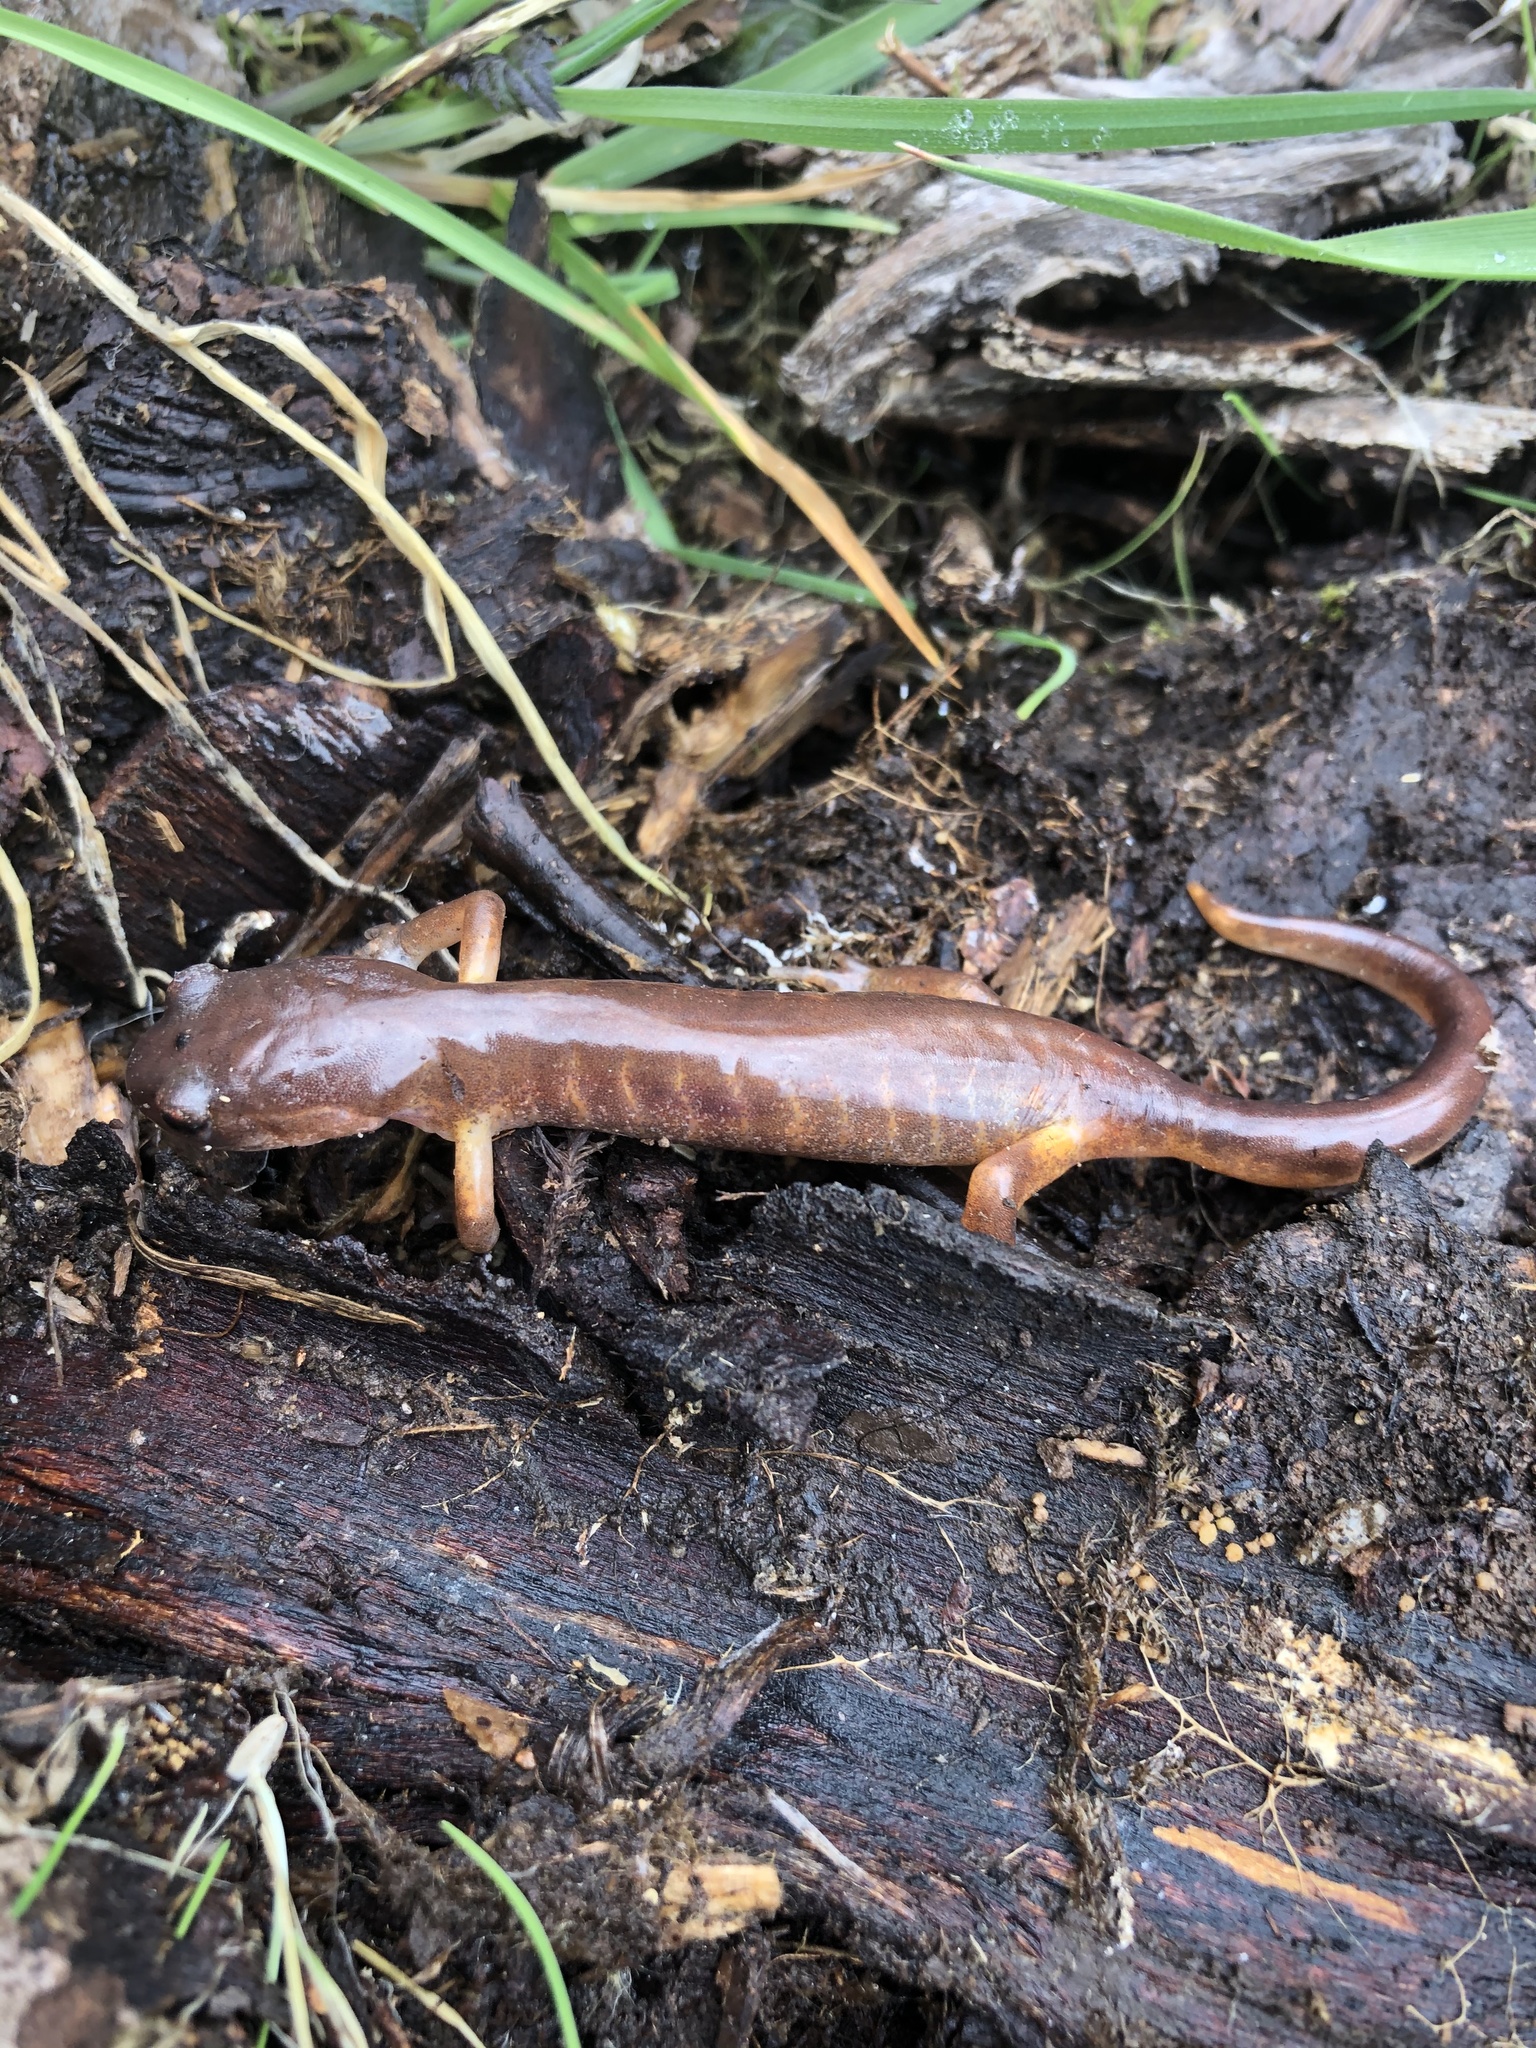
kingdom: Animalia
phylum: Chordata
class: Amphibia
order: Caudata
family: Plethodontidae
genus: Ensatina
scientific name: Ensatina eschscholtzii
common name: Ensatina
